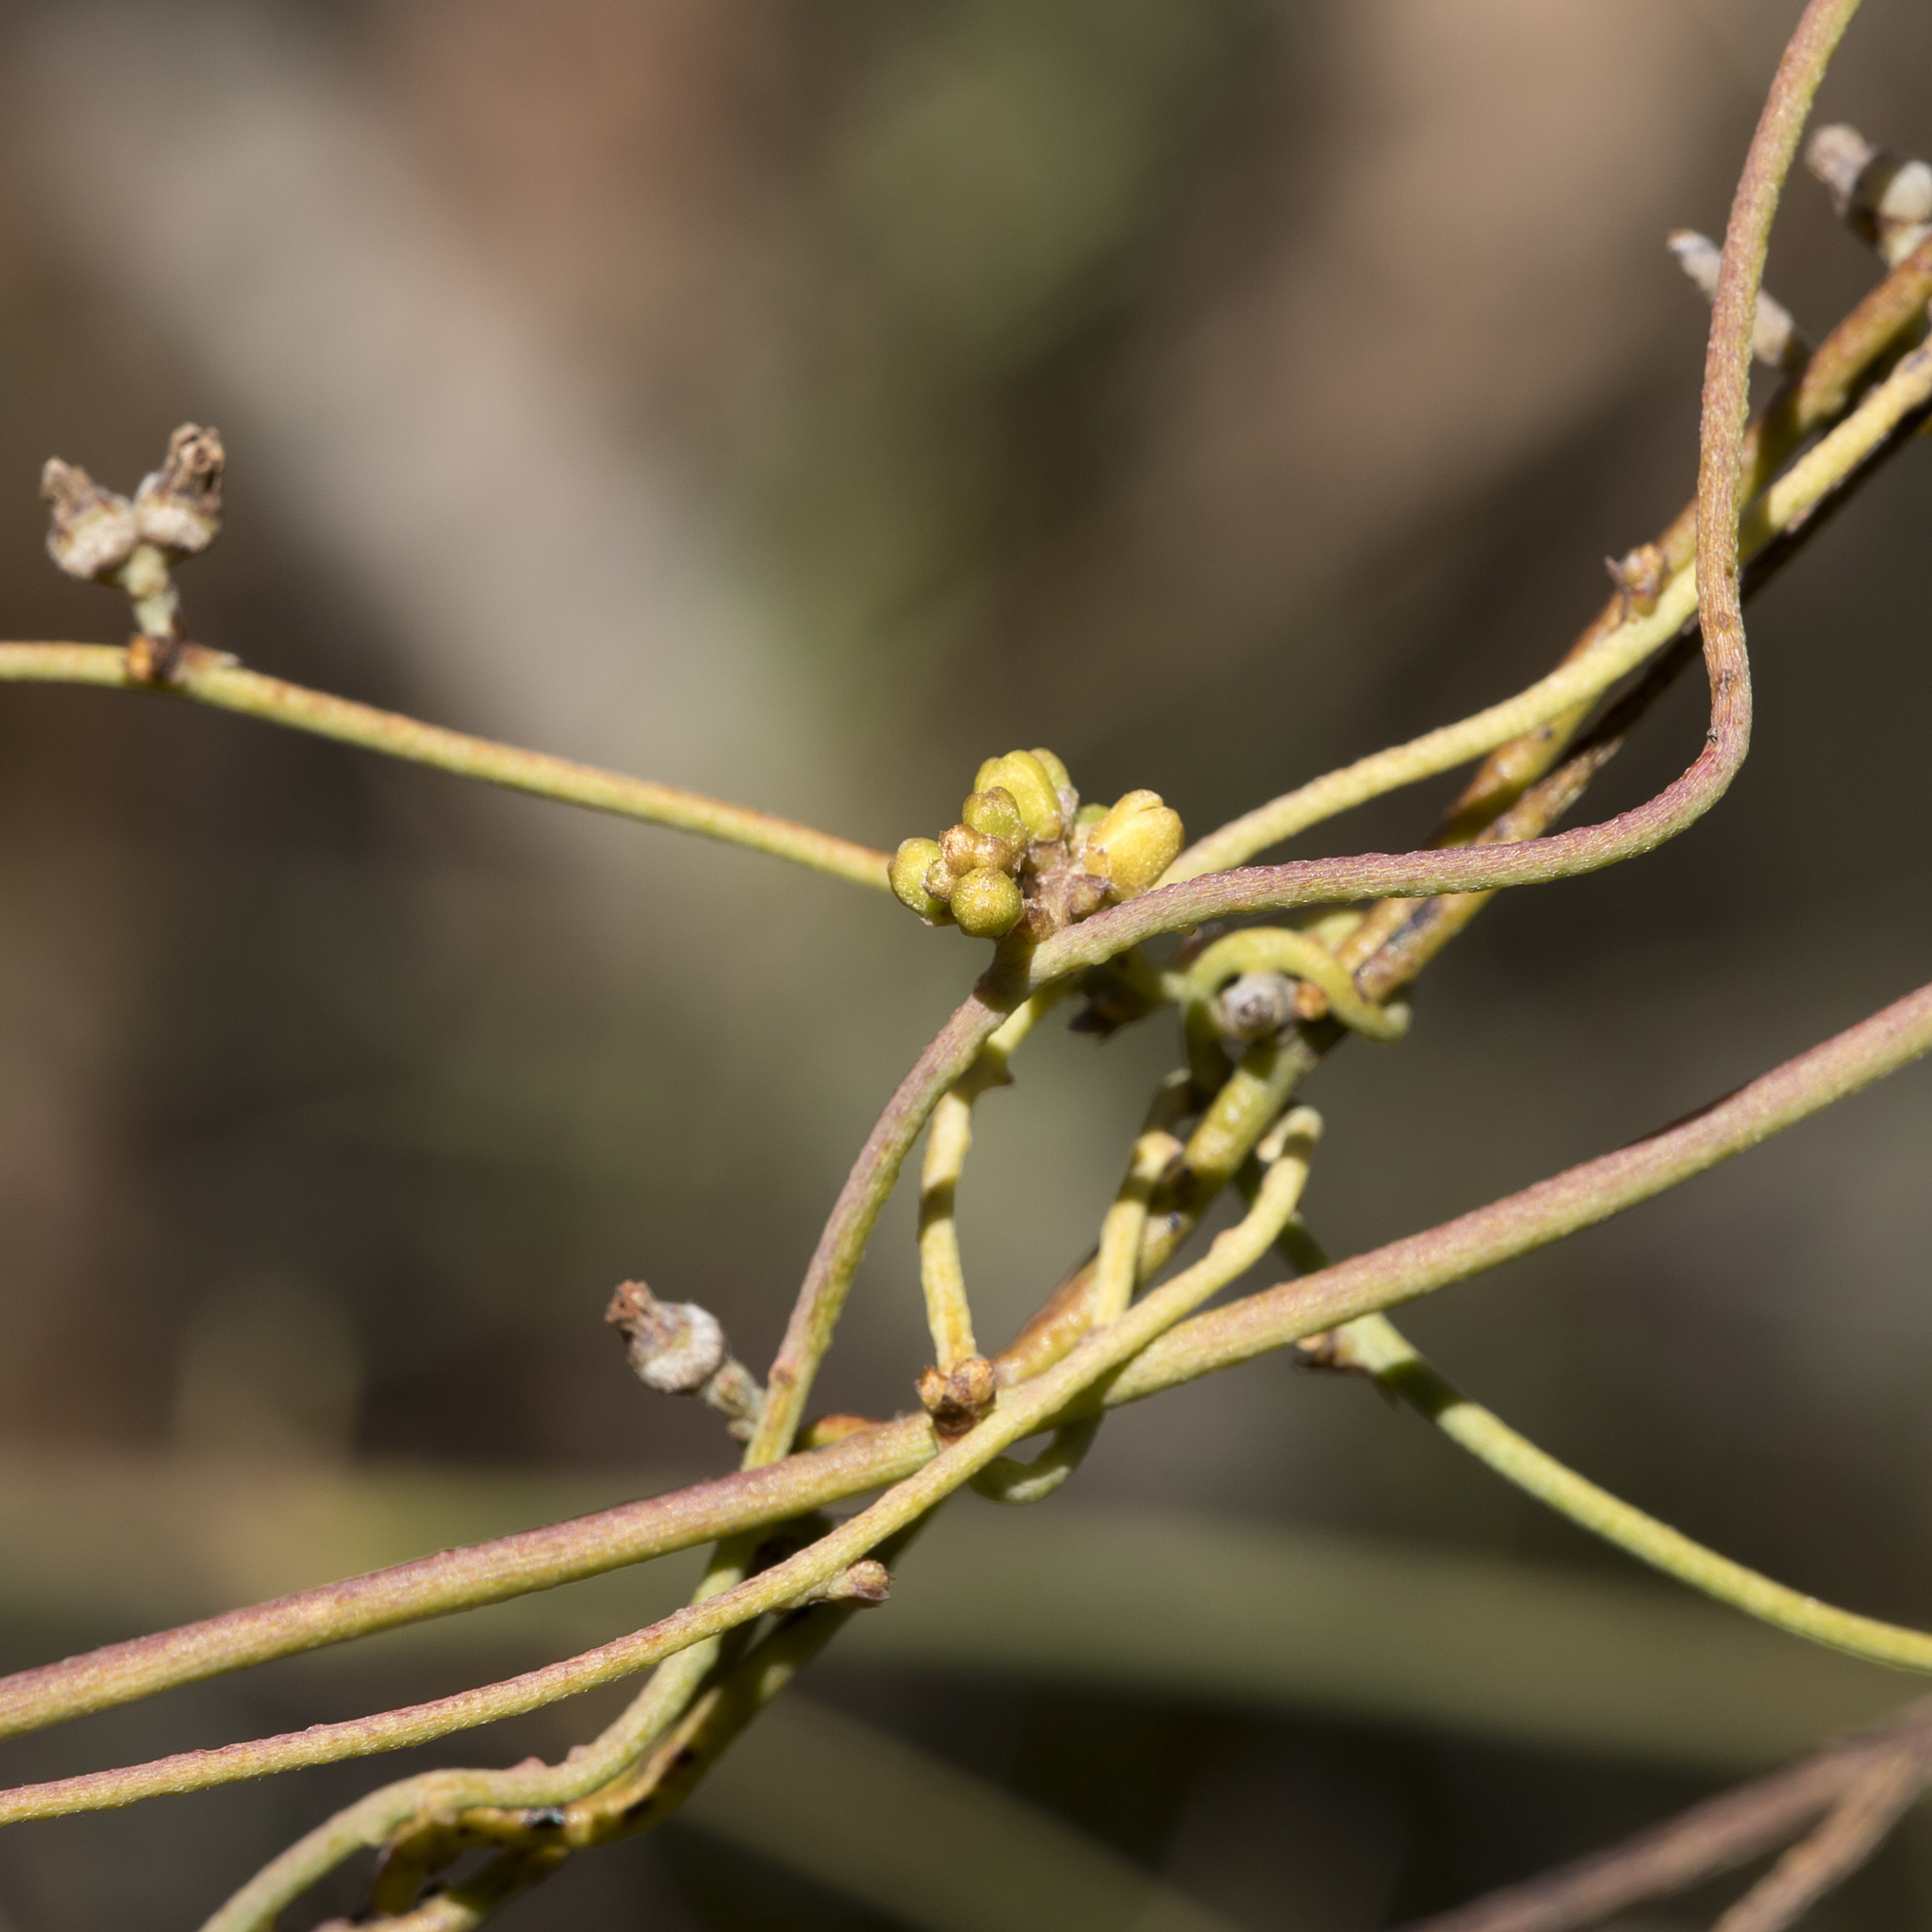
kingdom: Plantae
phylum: Tracheophyta
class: Magnoliopsida
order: Laurales
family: Lauraceae
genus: Cassytha
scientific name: Cassytha pubescens
